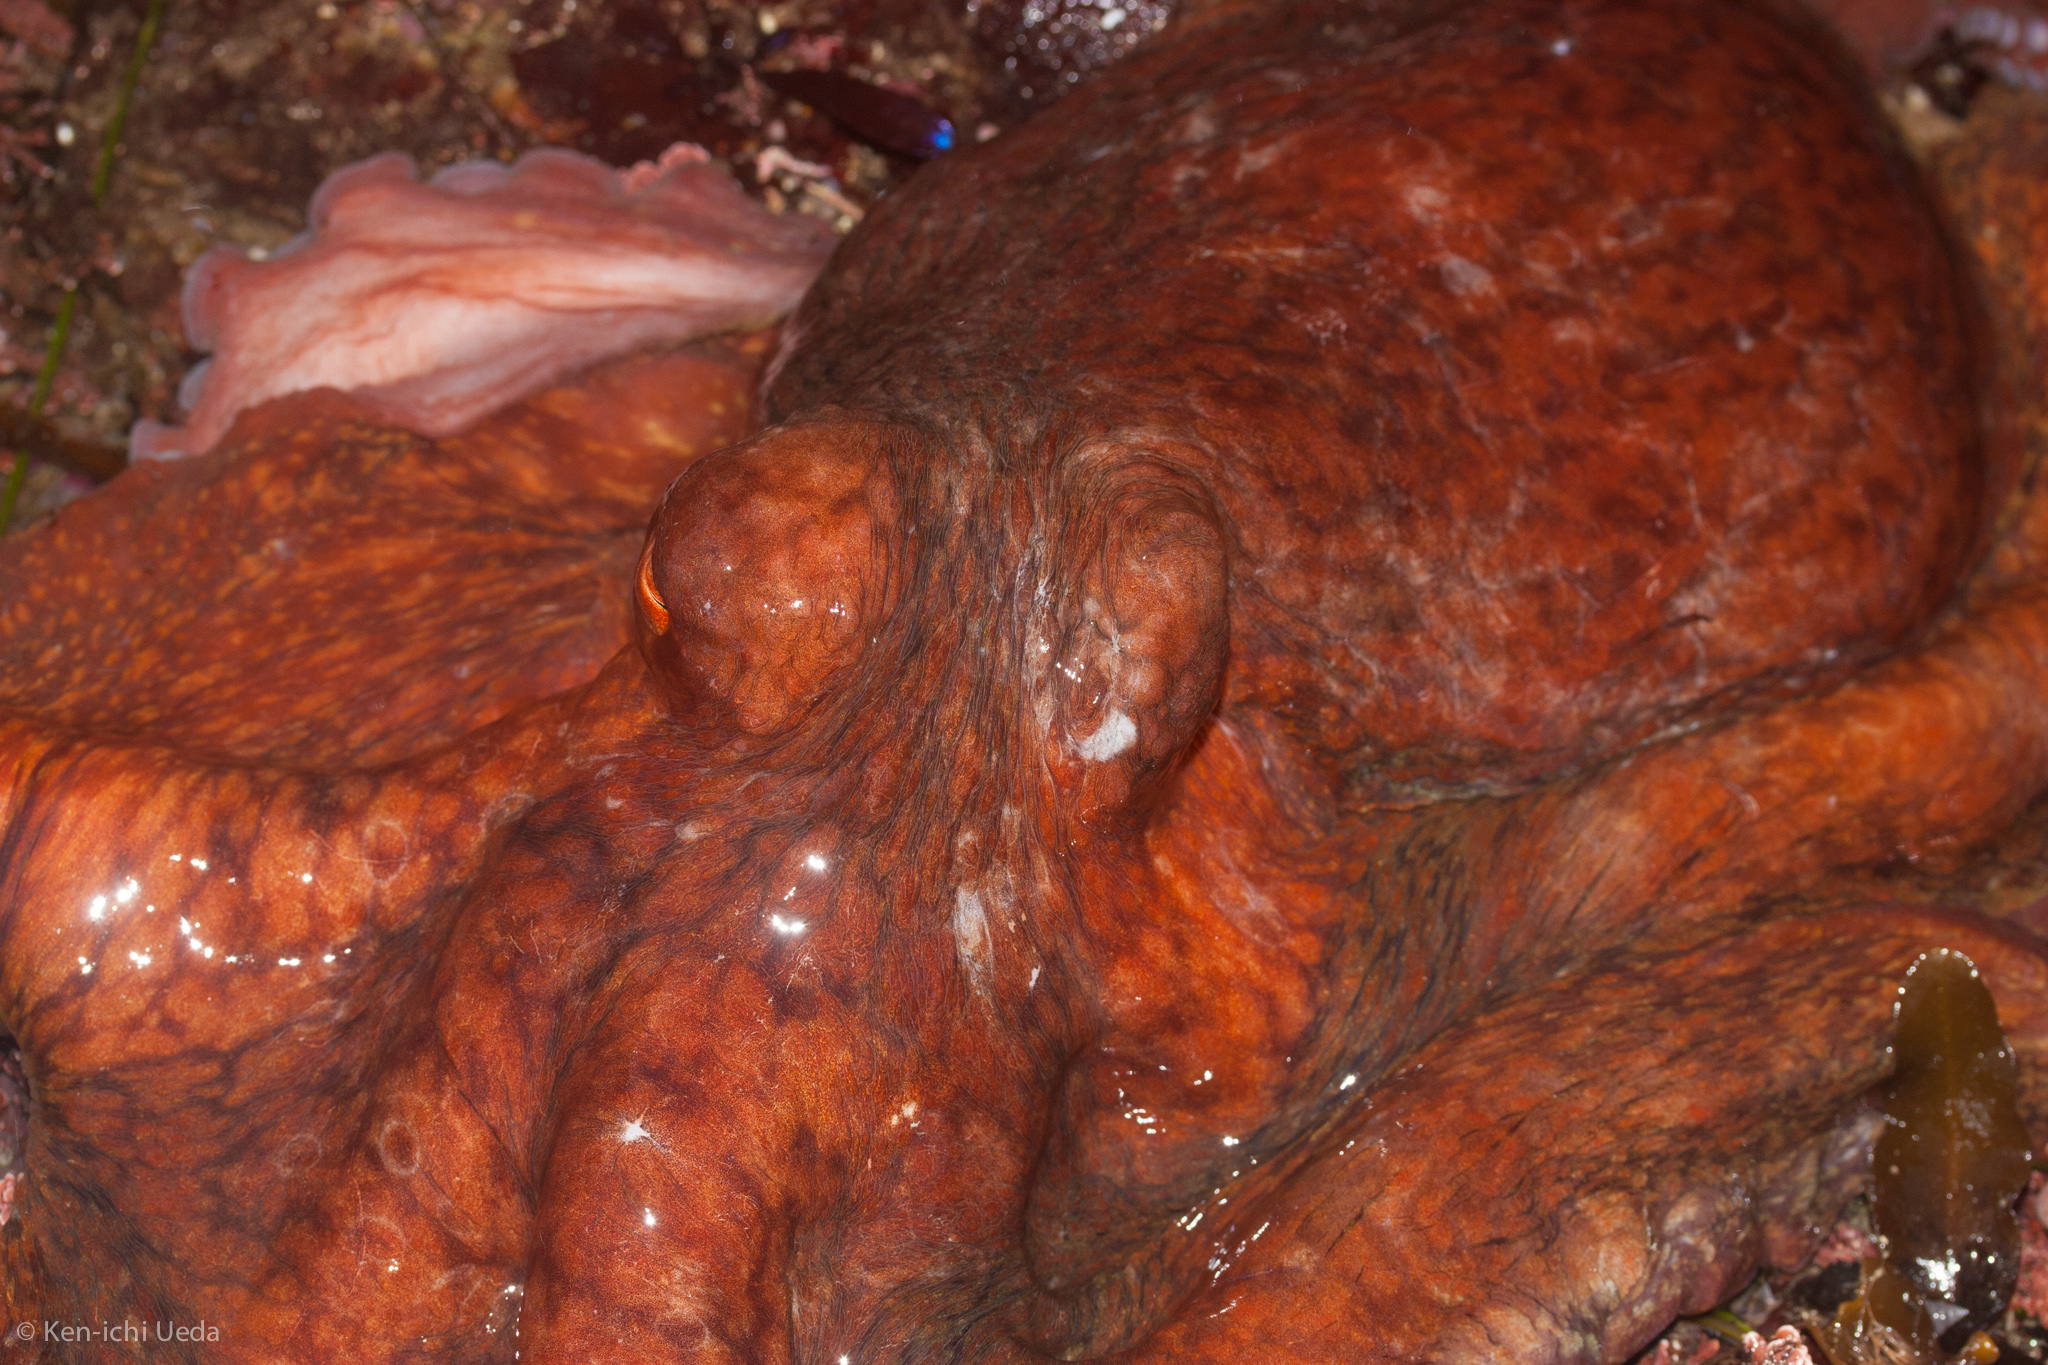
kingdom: Animalia
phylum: Mollusca
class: Cephalopoda
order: Octopoda
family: Enteroctopodidae
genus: Enteroctopus
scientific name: Enteroctopus dofleini
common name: Giant north pacific octopus
